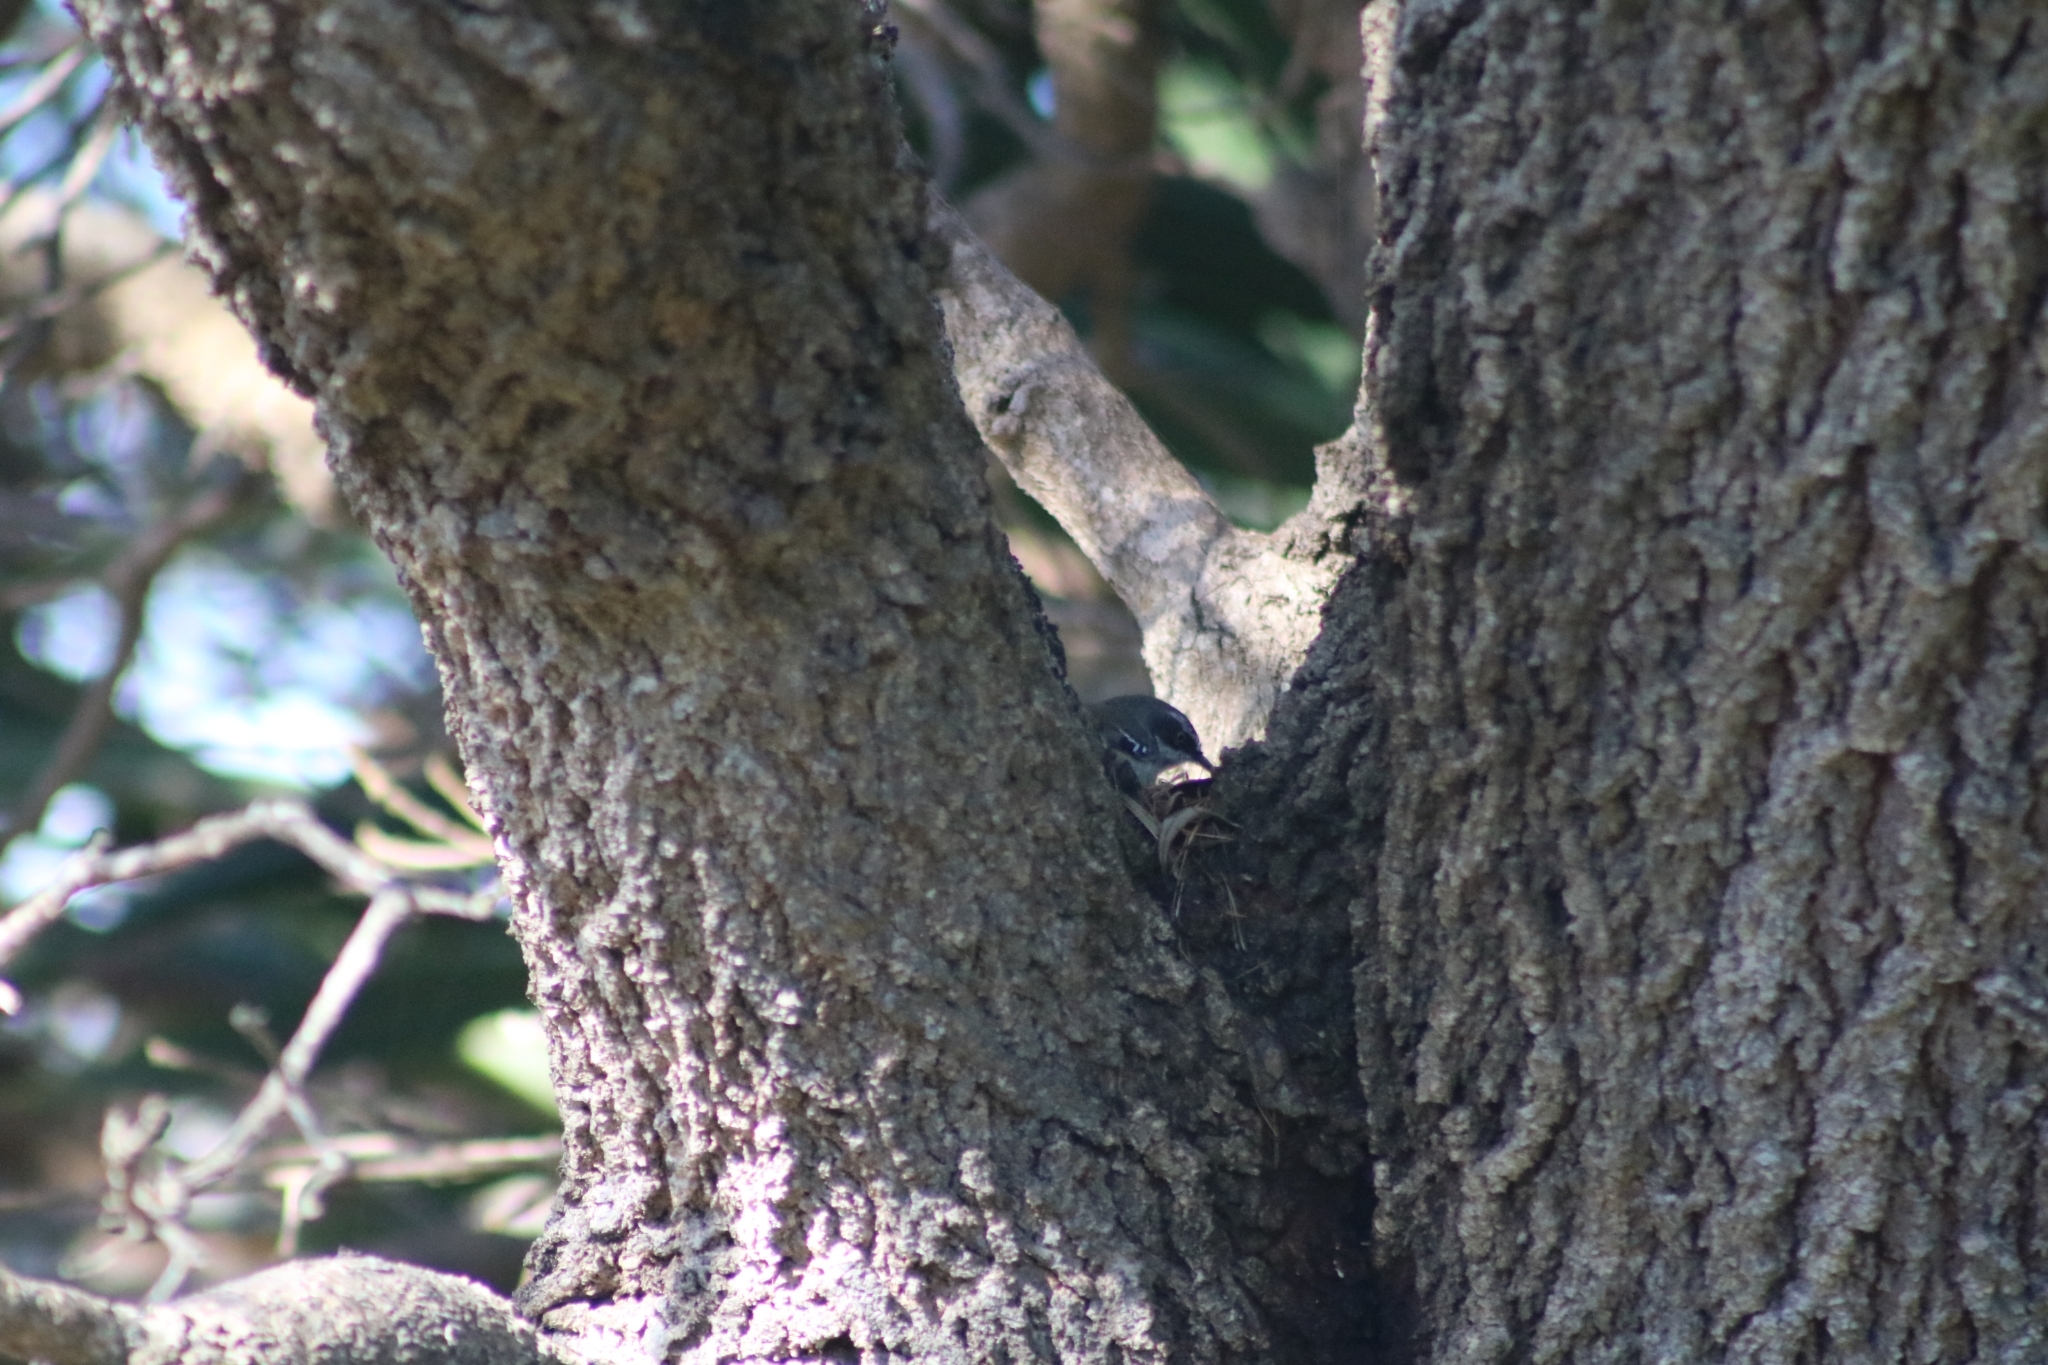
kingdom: Animalia
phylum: Chordata
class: Aves
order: Passeriformes
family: Acanthizidae
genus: Sericornis
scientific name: Sericornis frontalis
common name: White-browed scrubwren
